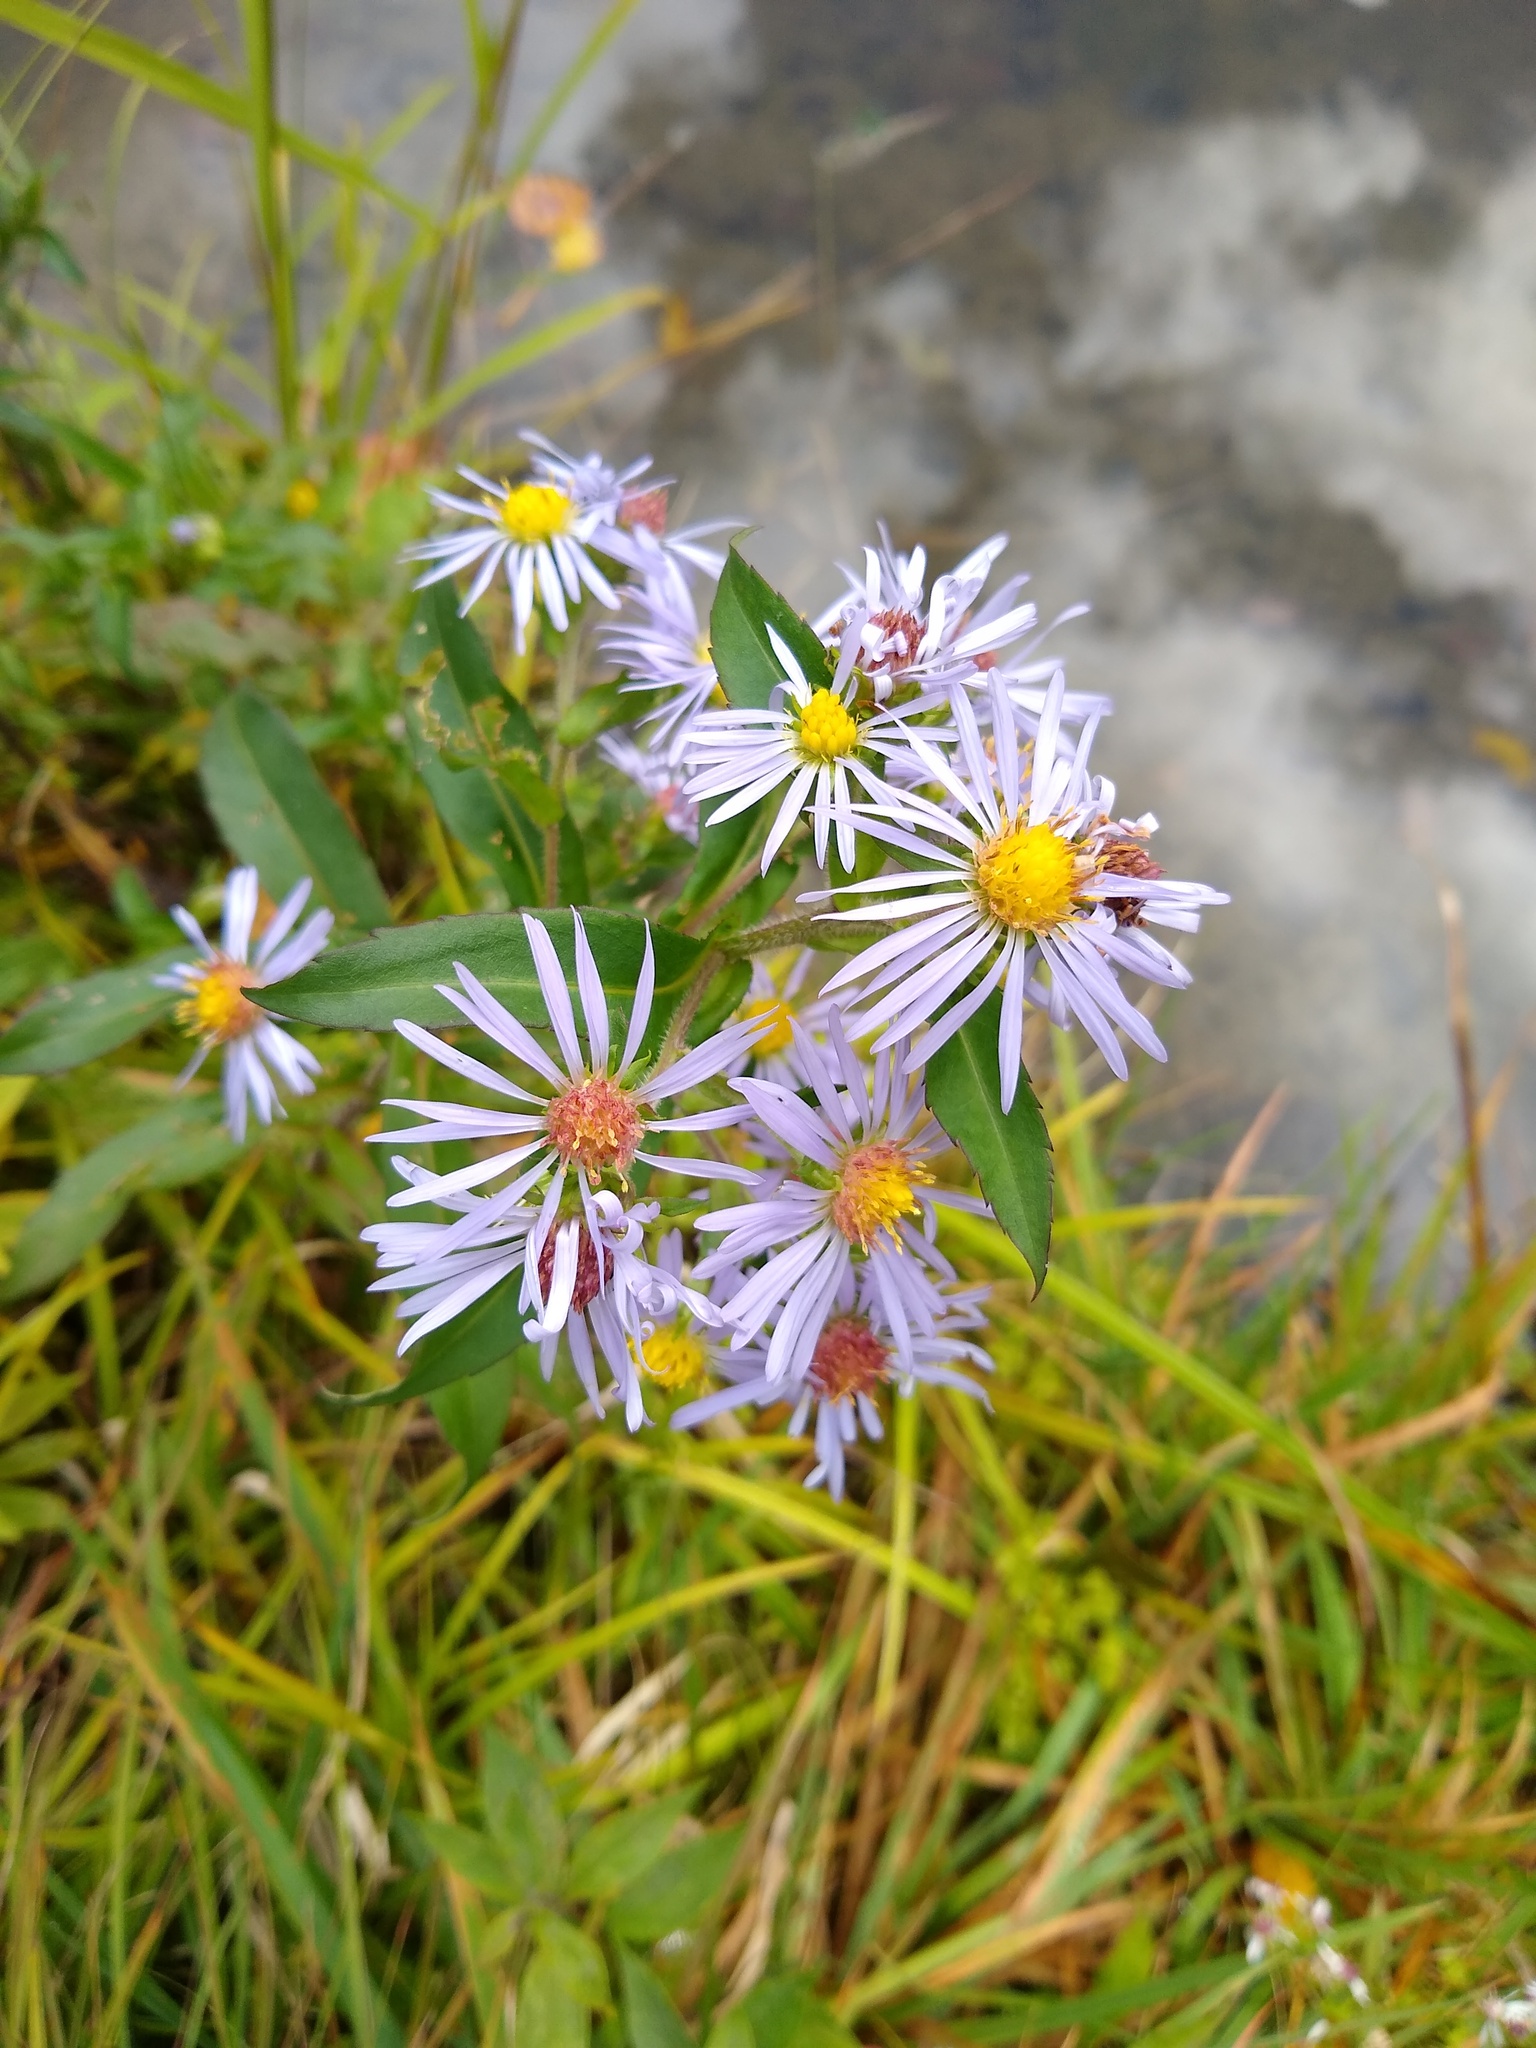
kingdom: Plantae
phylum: Tracheophyta
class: Magnoliopsida
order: Asterales
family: Asteraceae
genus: Symphyotrichum
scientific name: Symphyotrichum puniceum
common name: Bog aster
